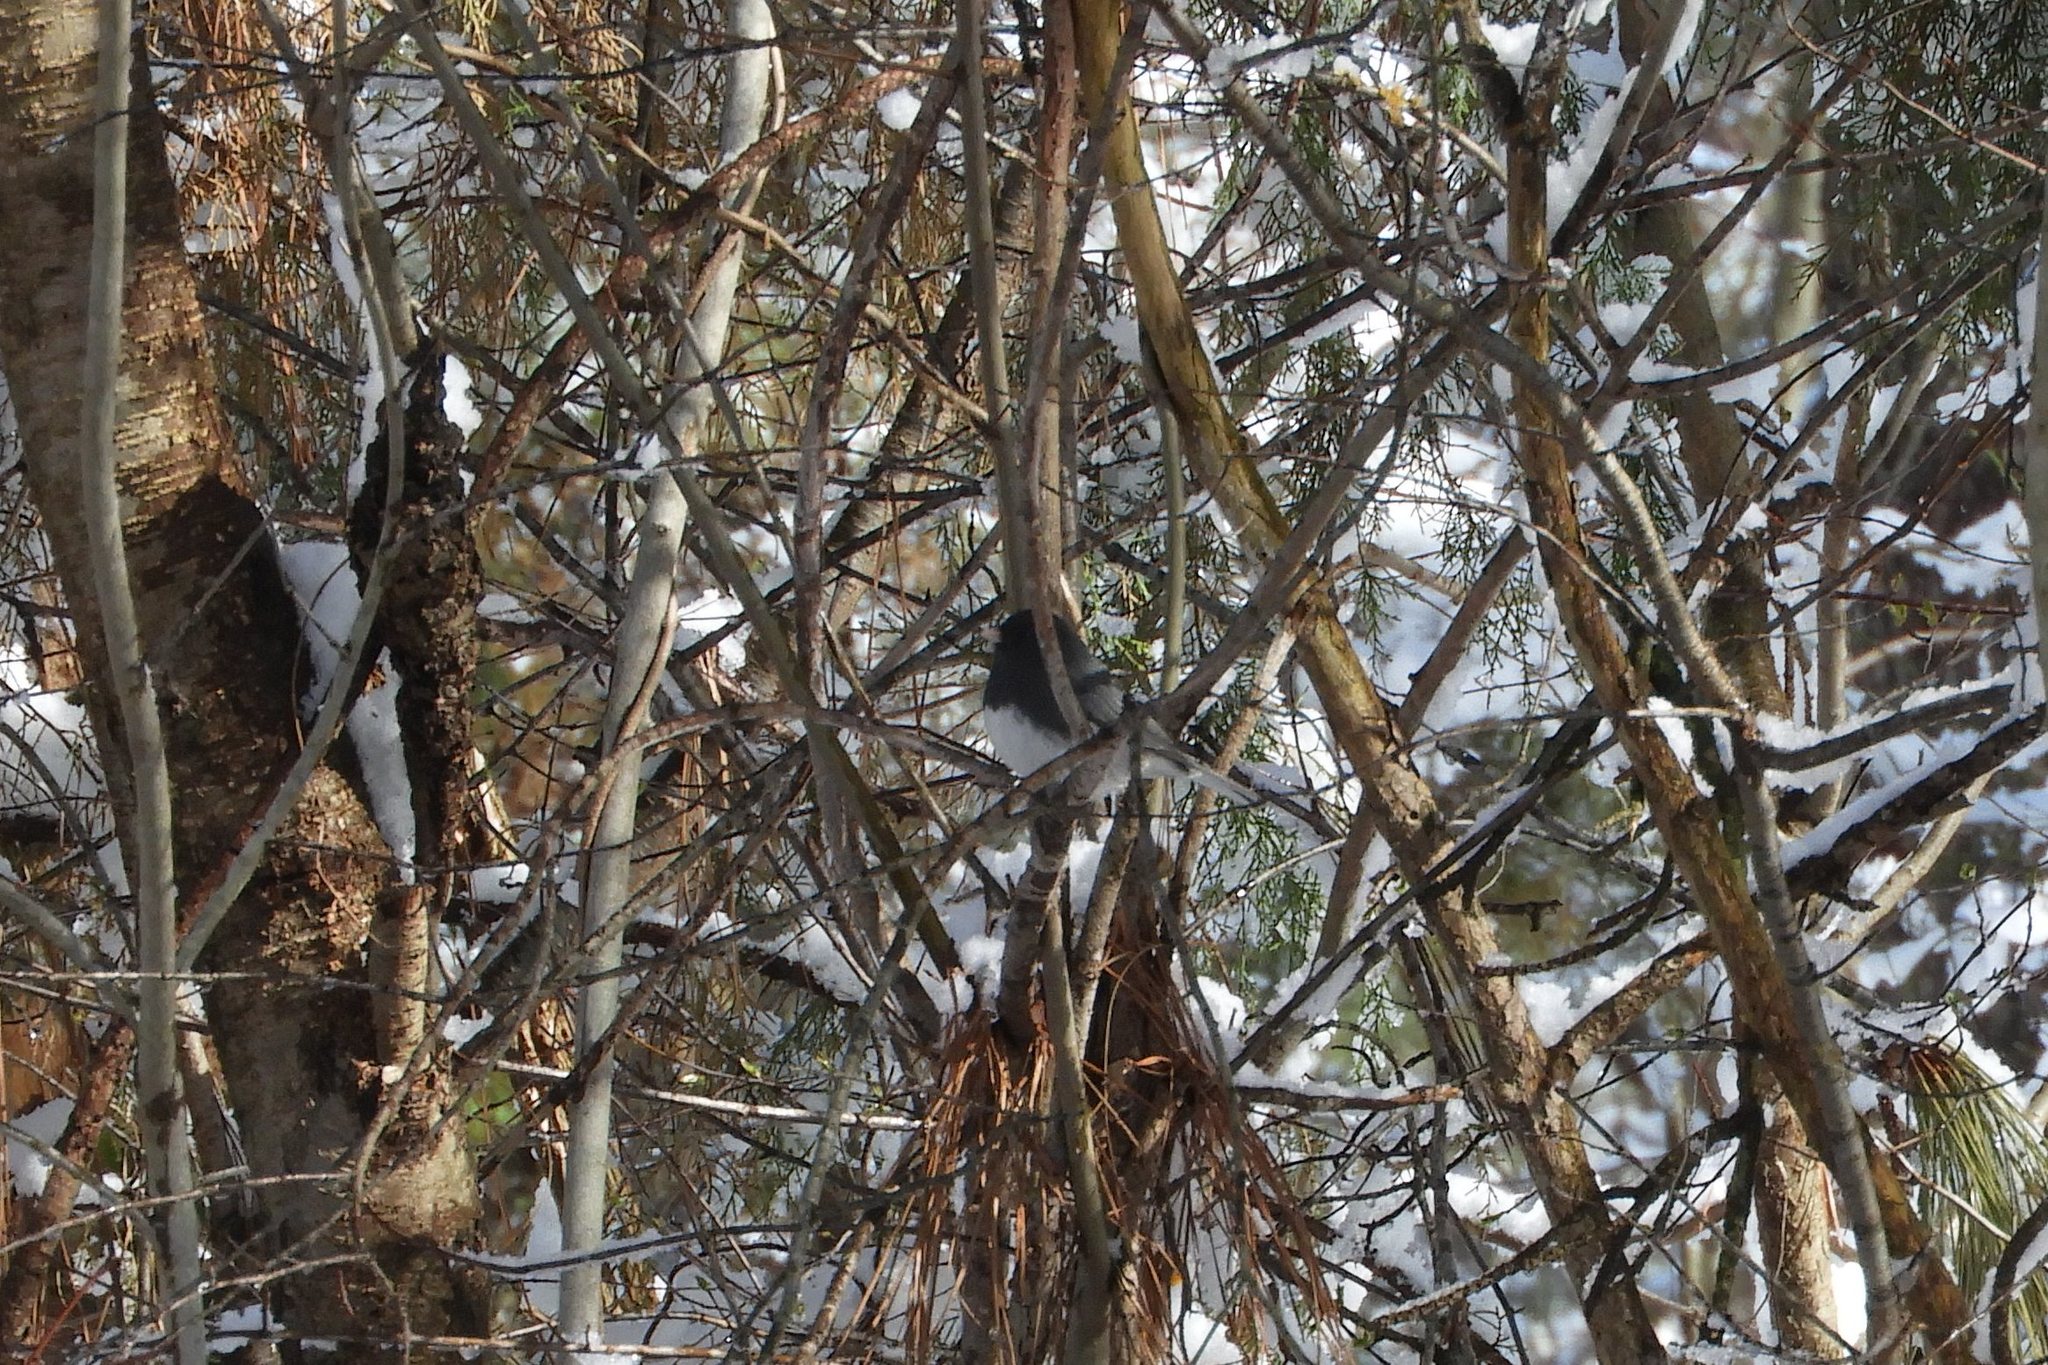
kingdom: Animalia
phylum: Chordata
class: Aves
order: Passeriformes
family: Passerellidae
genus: Junco
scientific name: Junco hyemalis
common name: Dark-eyed junco
